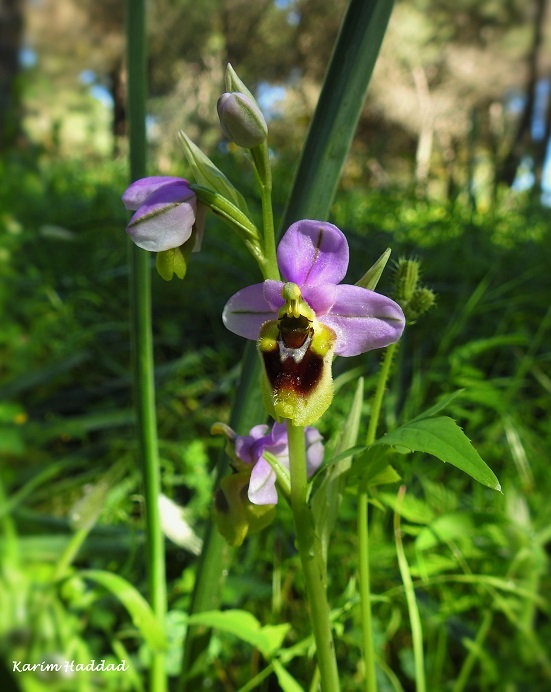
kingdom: Plantae
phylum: Tracheophyta
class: Liliopsida
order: Asparagales
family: Orchidaceae
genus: Ophrys
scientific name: Ophrys tenthredinifera
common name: Sawfly orchid
